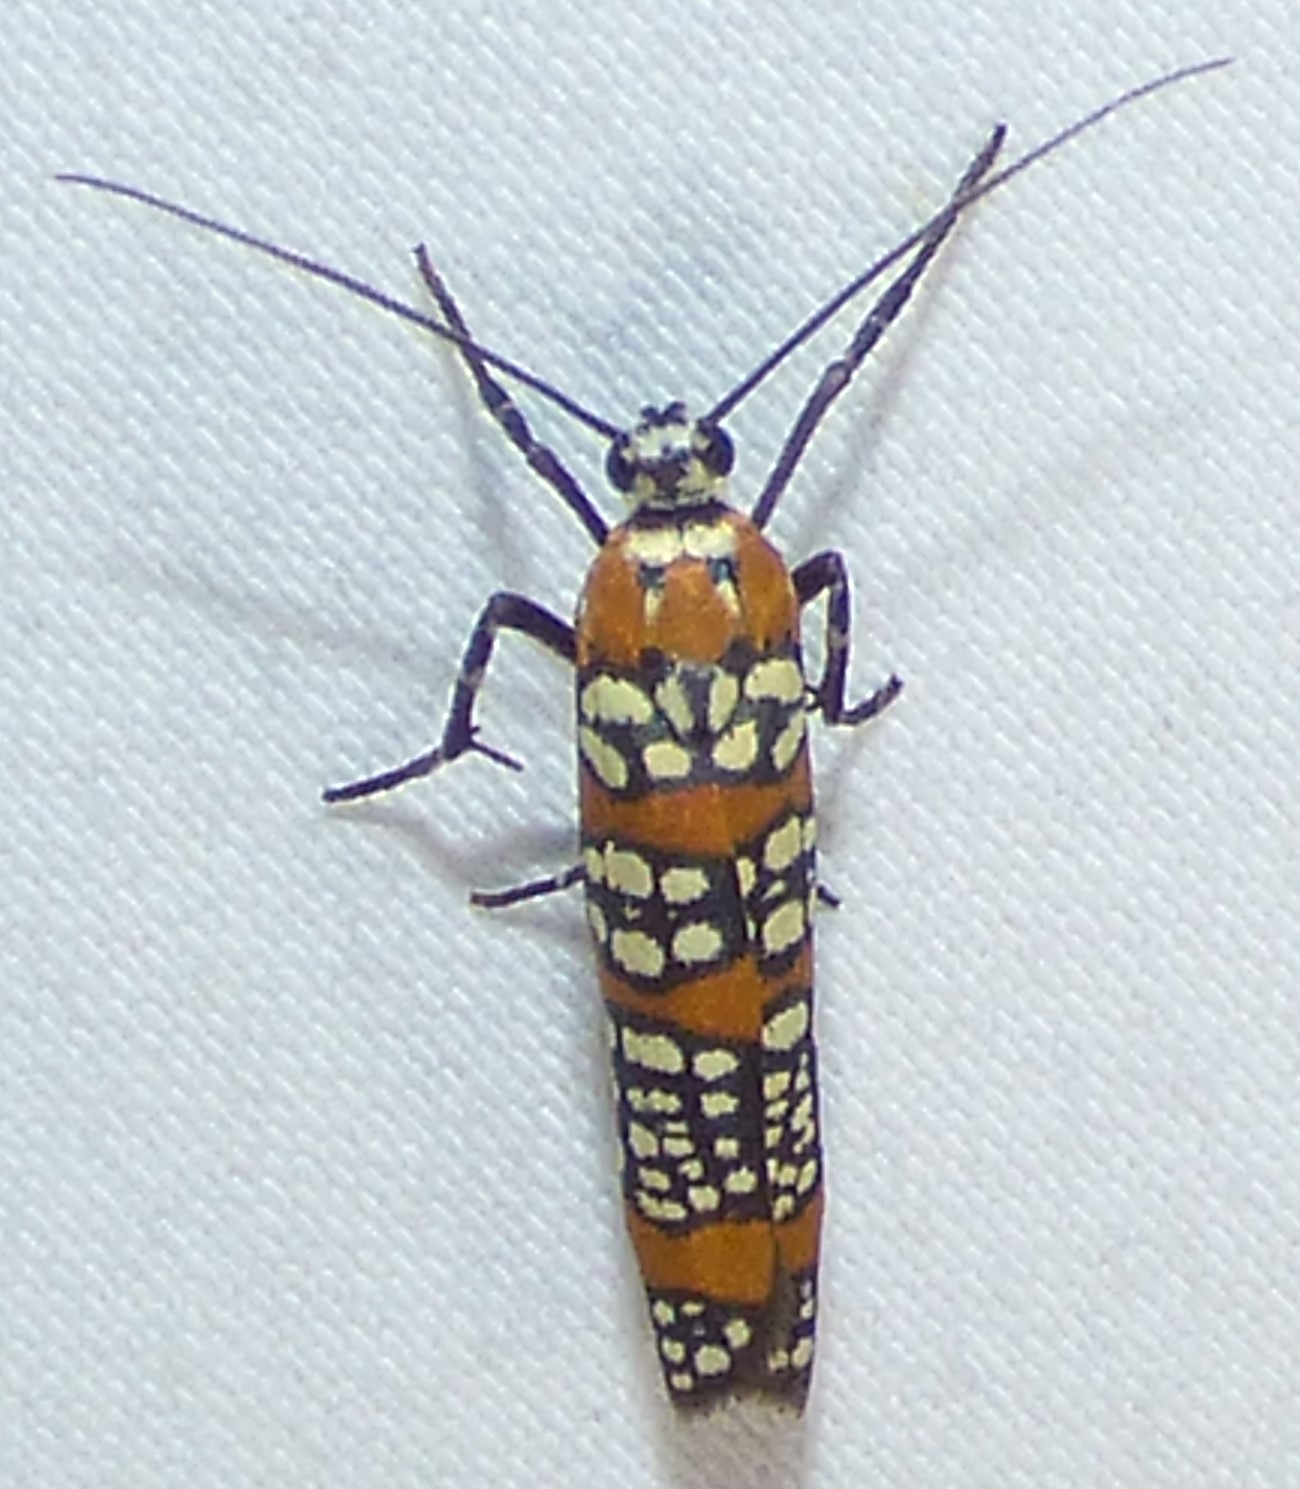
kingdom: Animalia
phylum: Arthropoda
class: Insecta
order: Lepidoptera
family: Attevidae
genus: Atteva
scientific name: Atteva punctella
